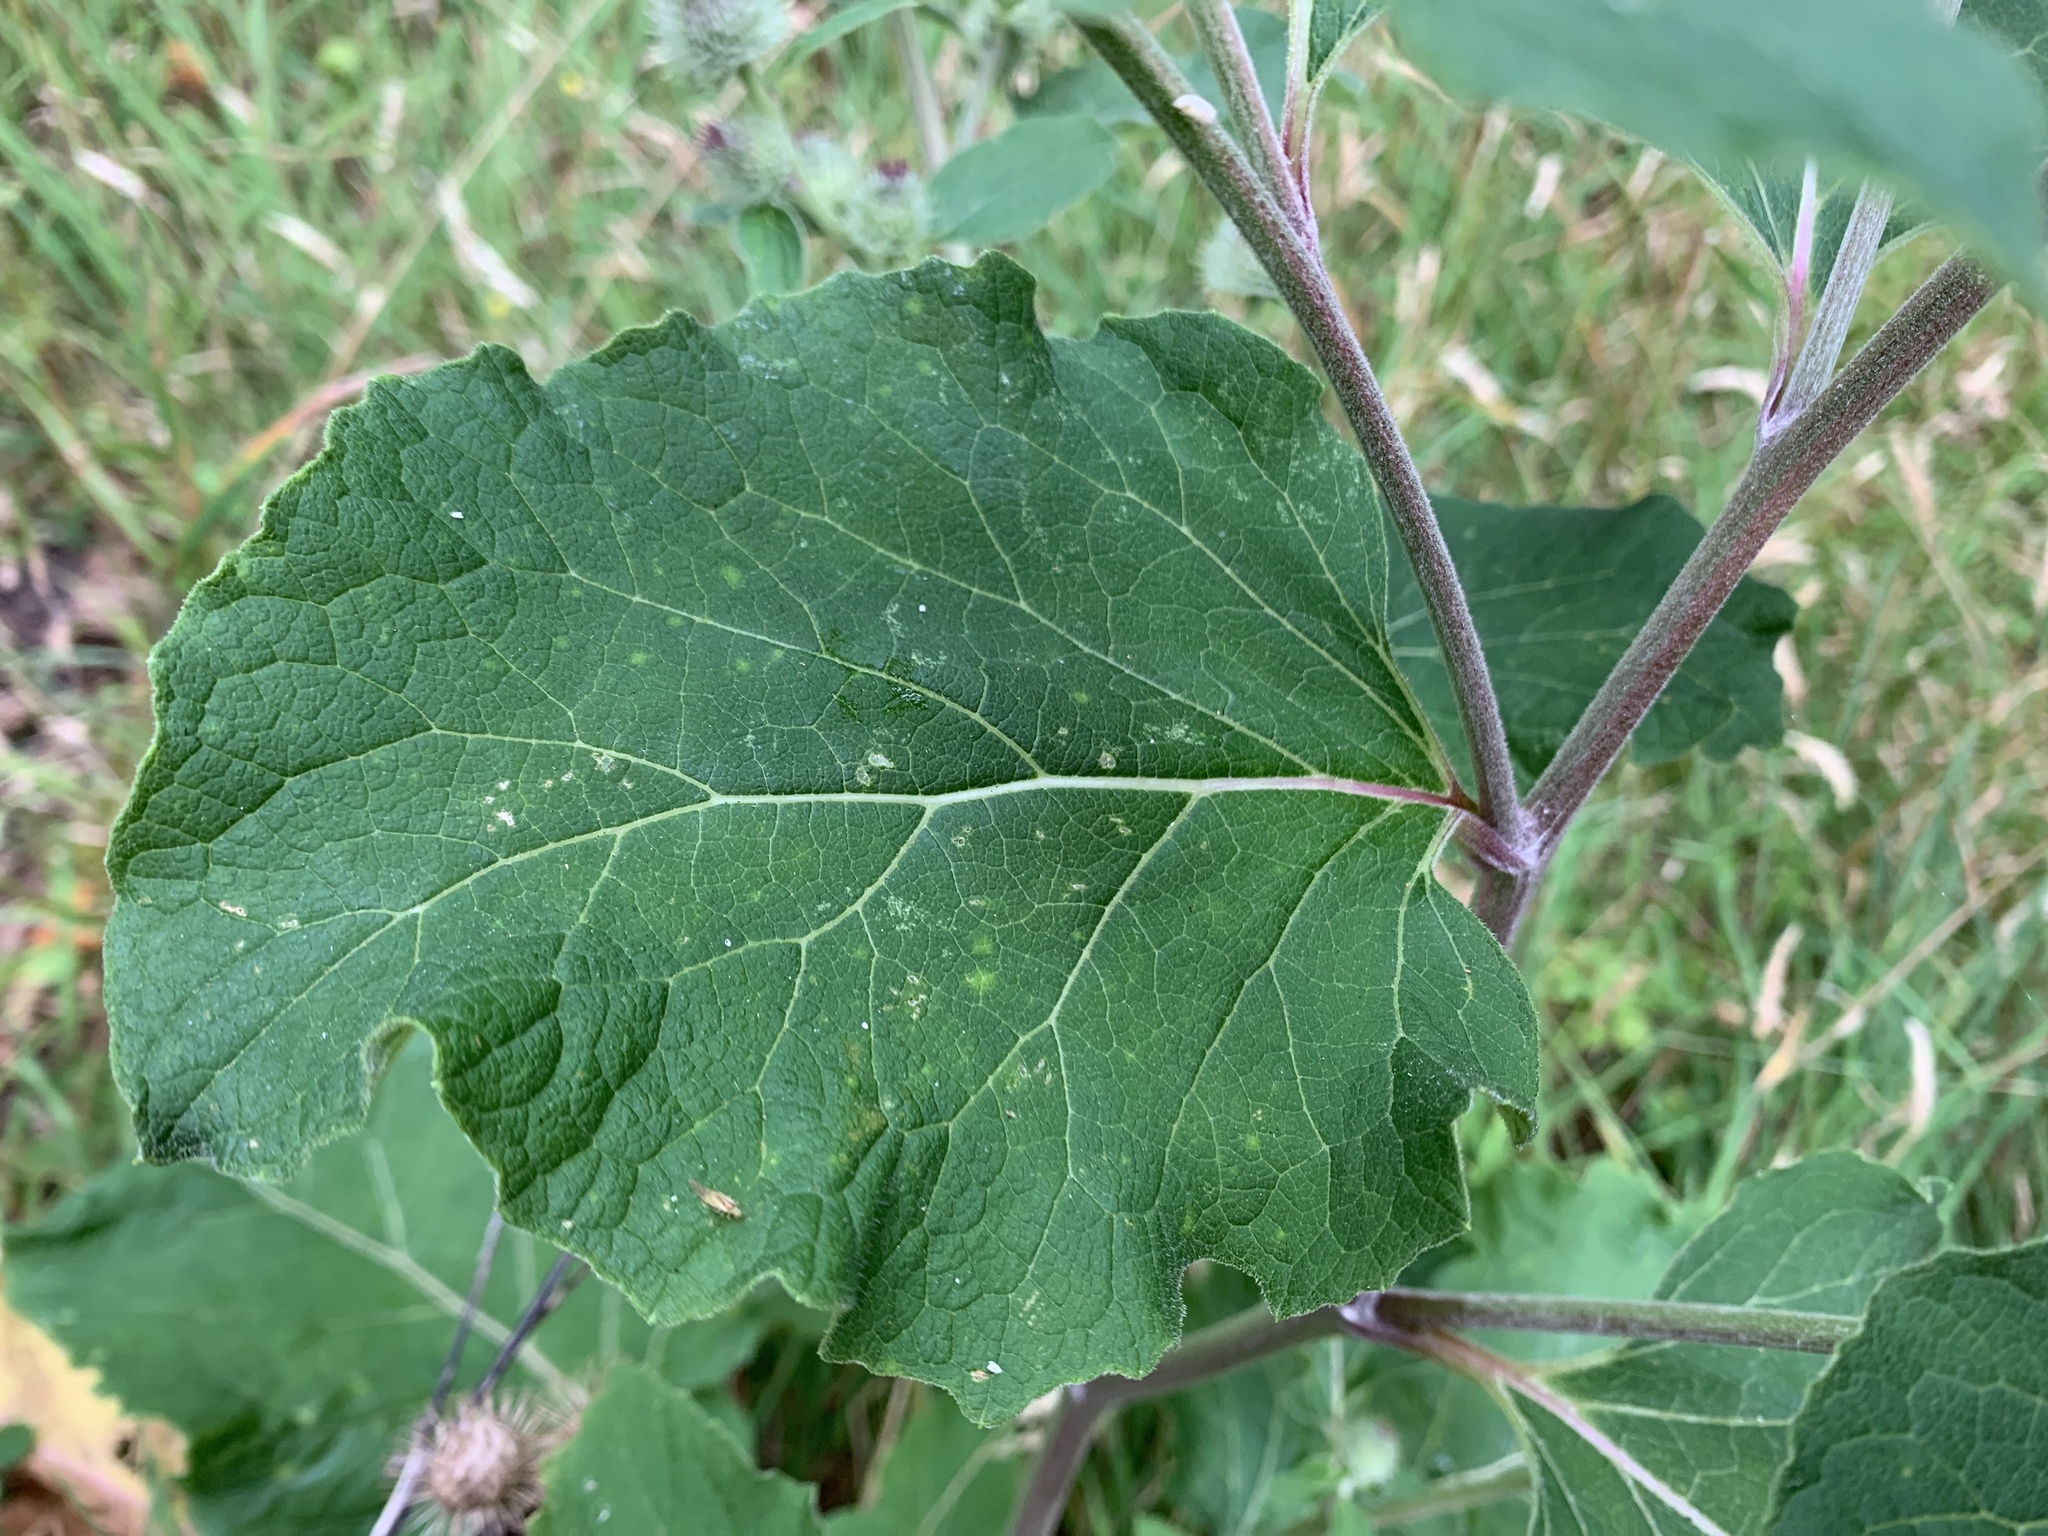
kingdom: Plantae
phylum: Tracheophyta
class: Magnoliopsida
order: Asterales
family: Asteraceae
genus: Arctium
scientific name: Arctium tomentosum
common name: Woolly burdock
